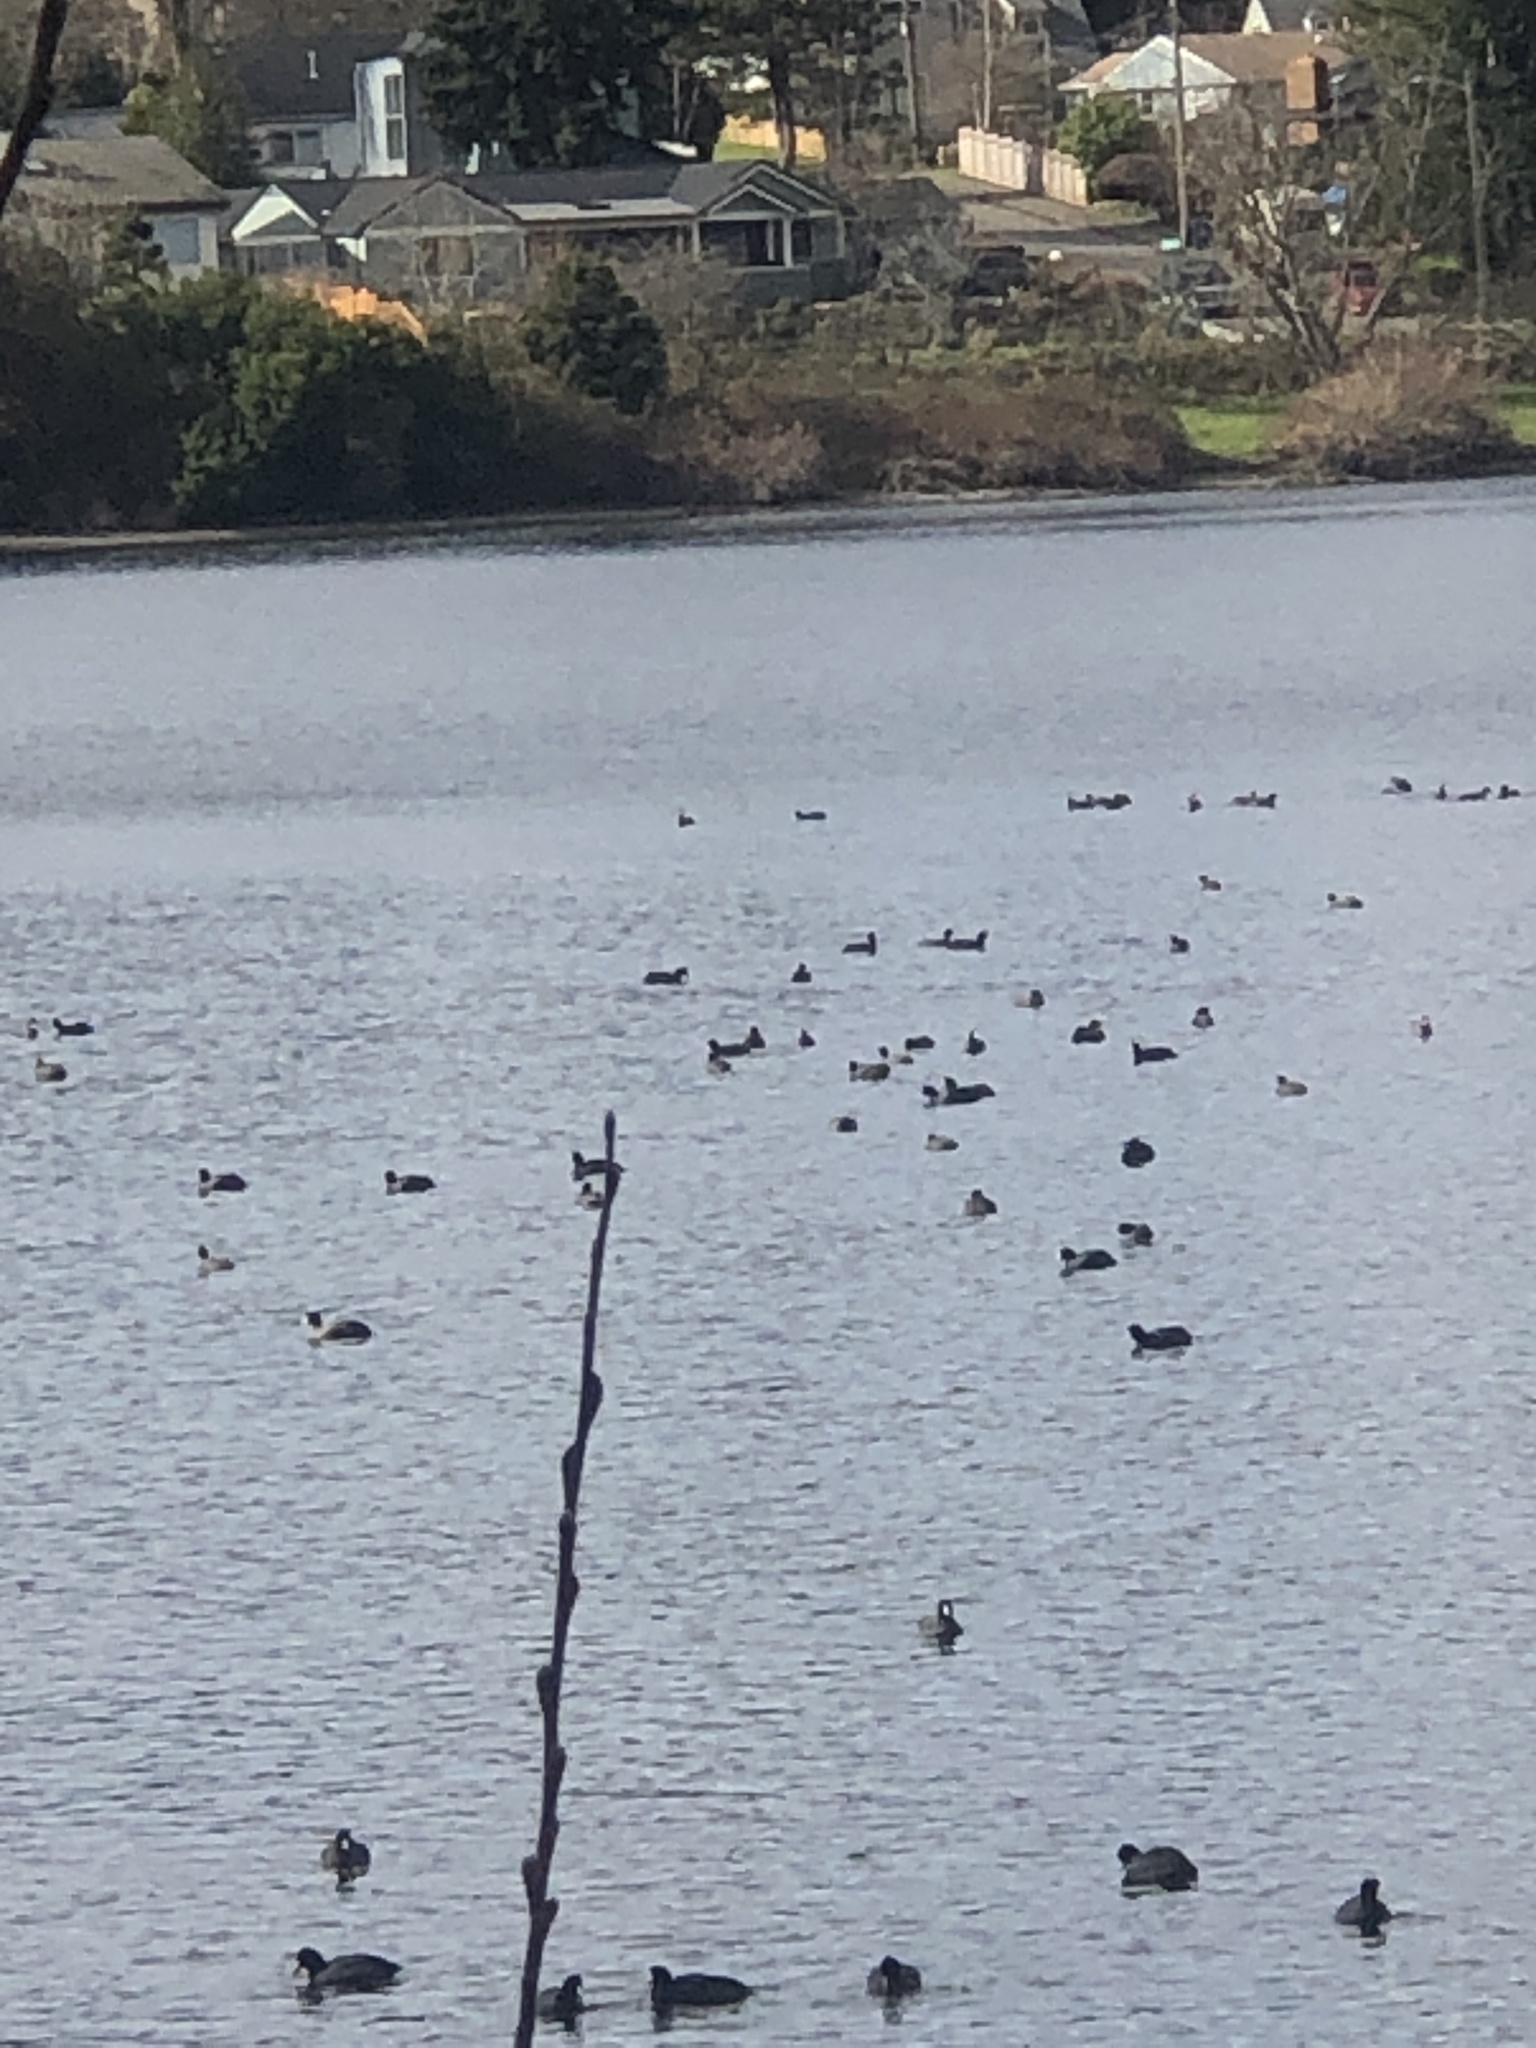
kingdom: Animalia
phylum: Chordata
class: Aves
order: Gruiformes
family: Rallidae
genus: Fulica
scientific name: Fulica americana
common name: American coot
